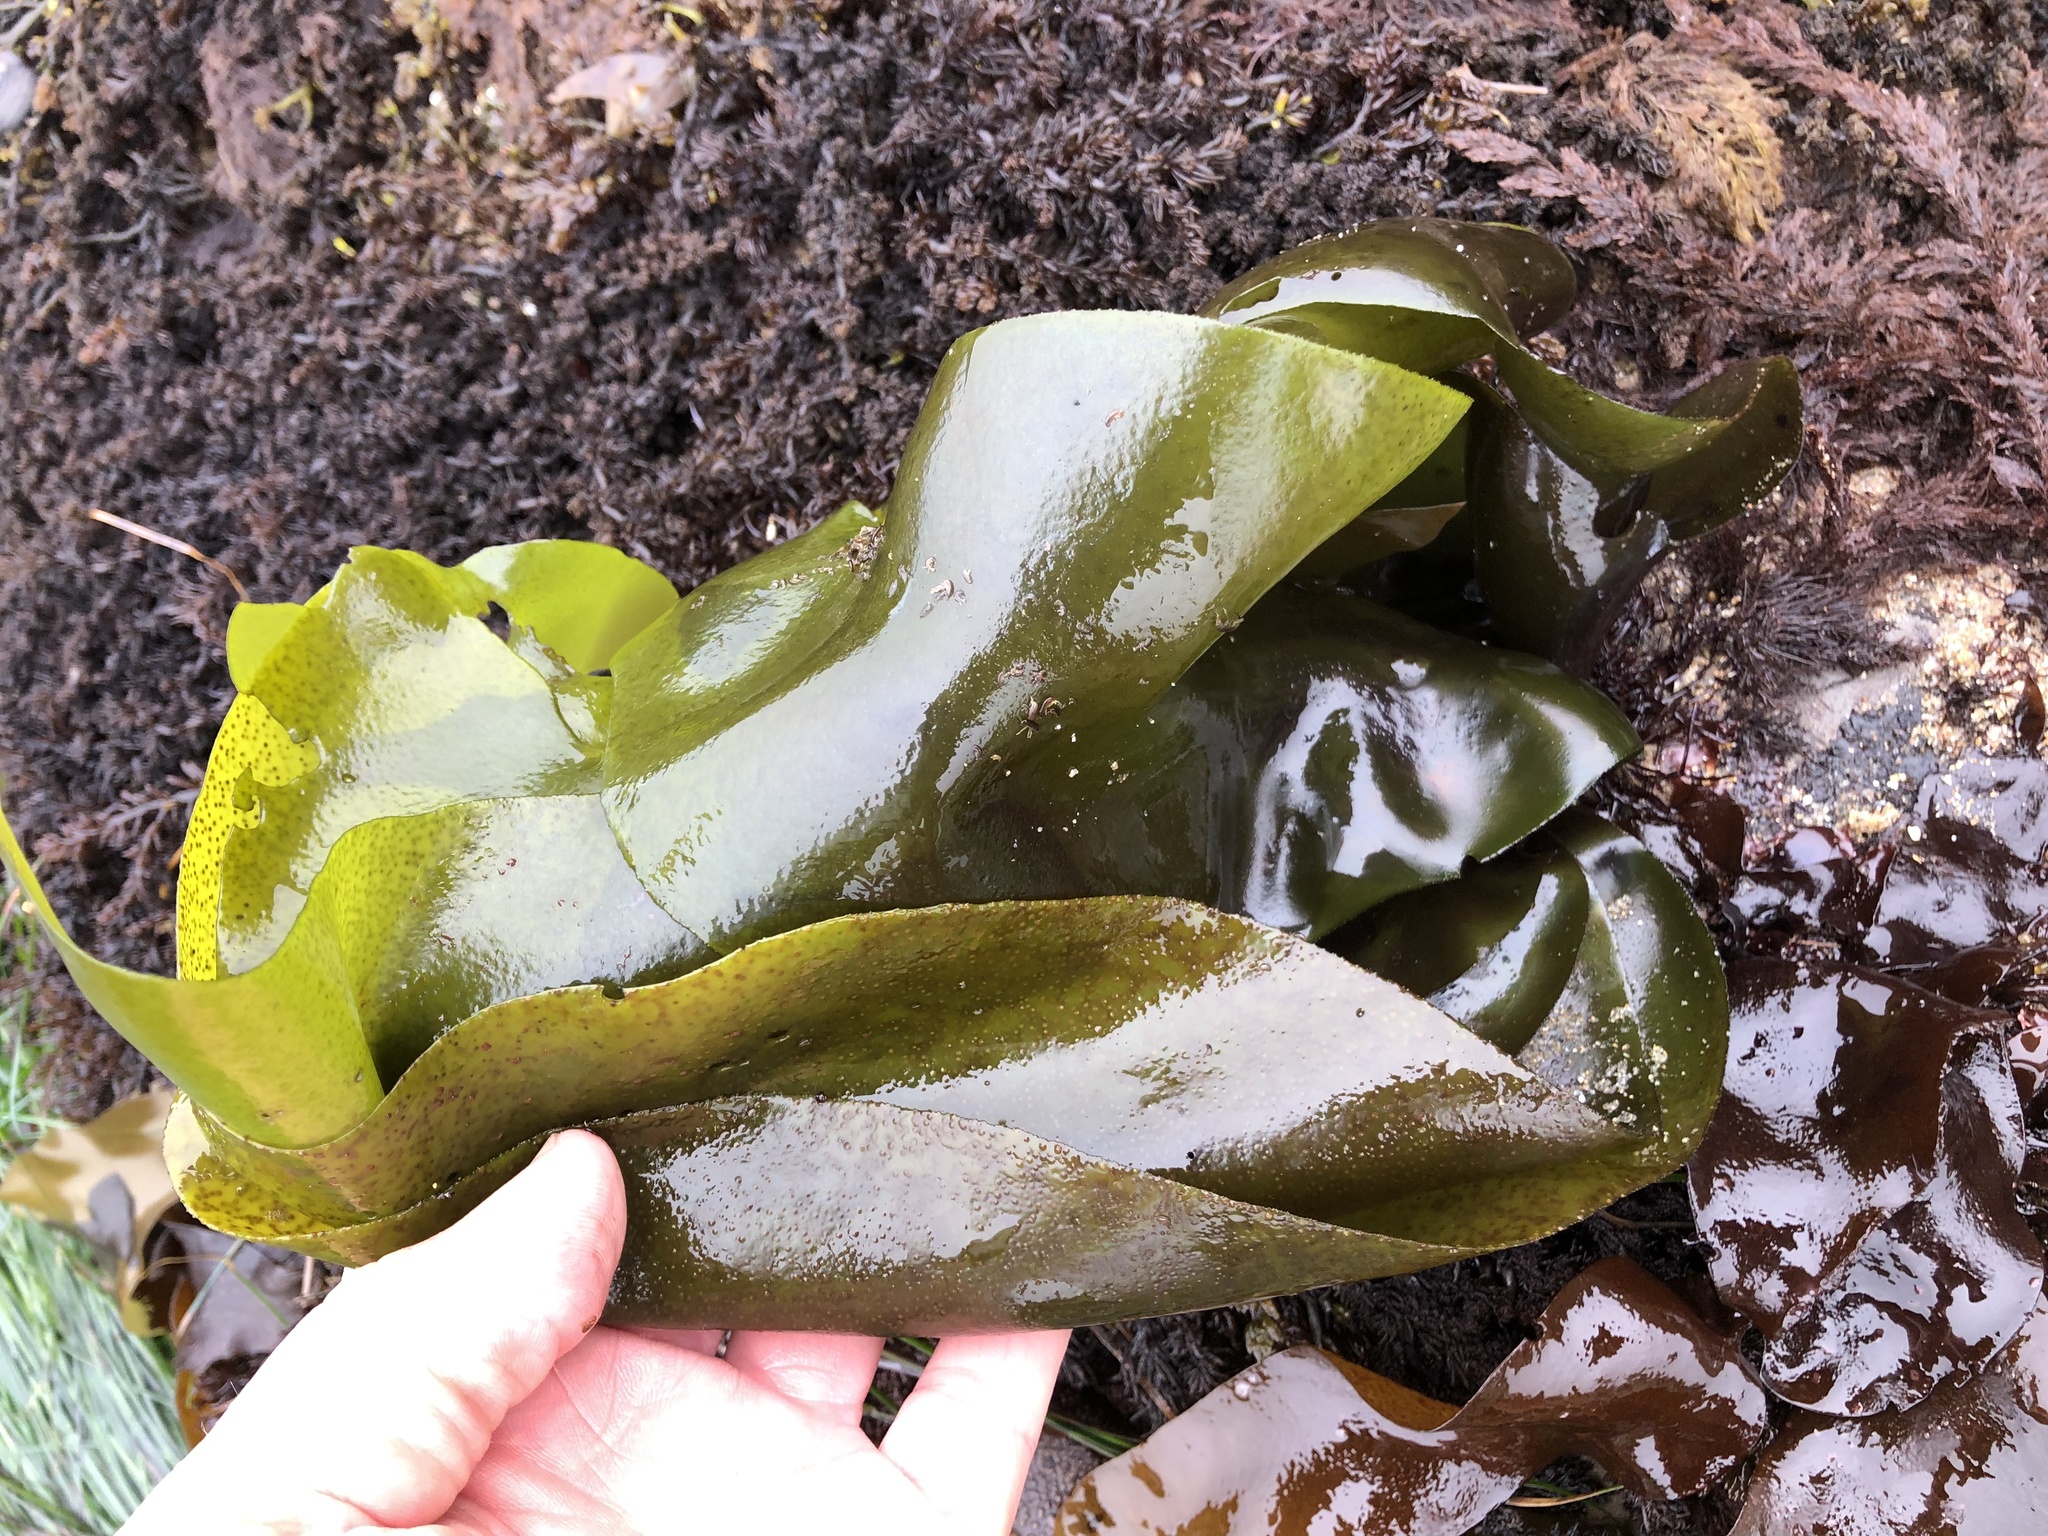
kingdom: Plantae
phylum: Rhodophyta
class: Florideophyceae
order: Gigartinales
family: Gigartinaceae
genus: Mazzaella
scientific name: Mazzaella splendens
